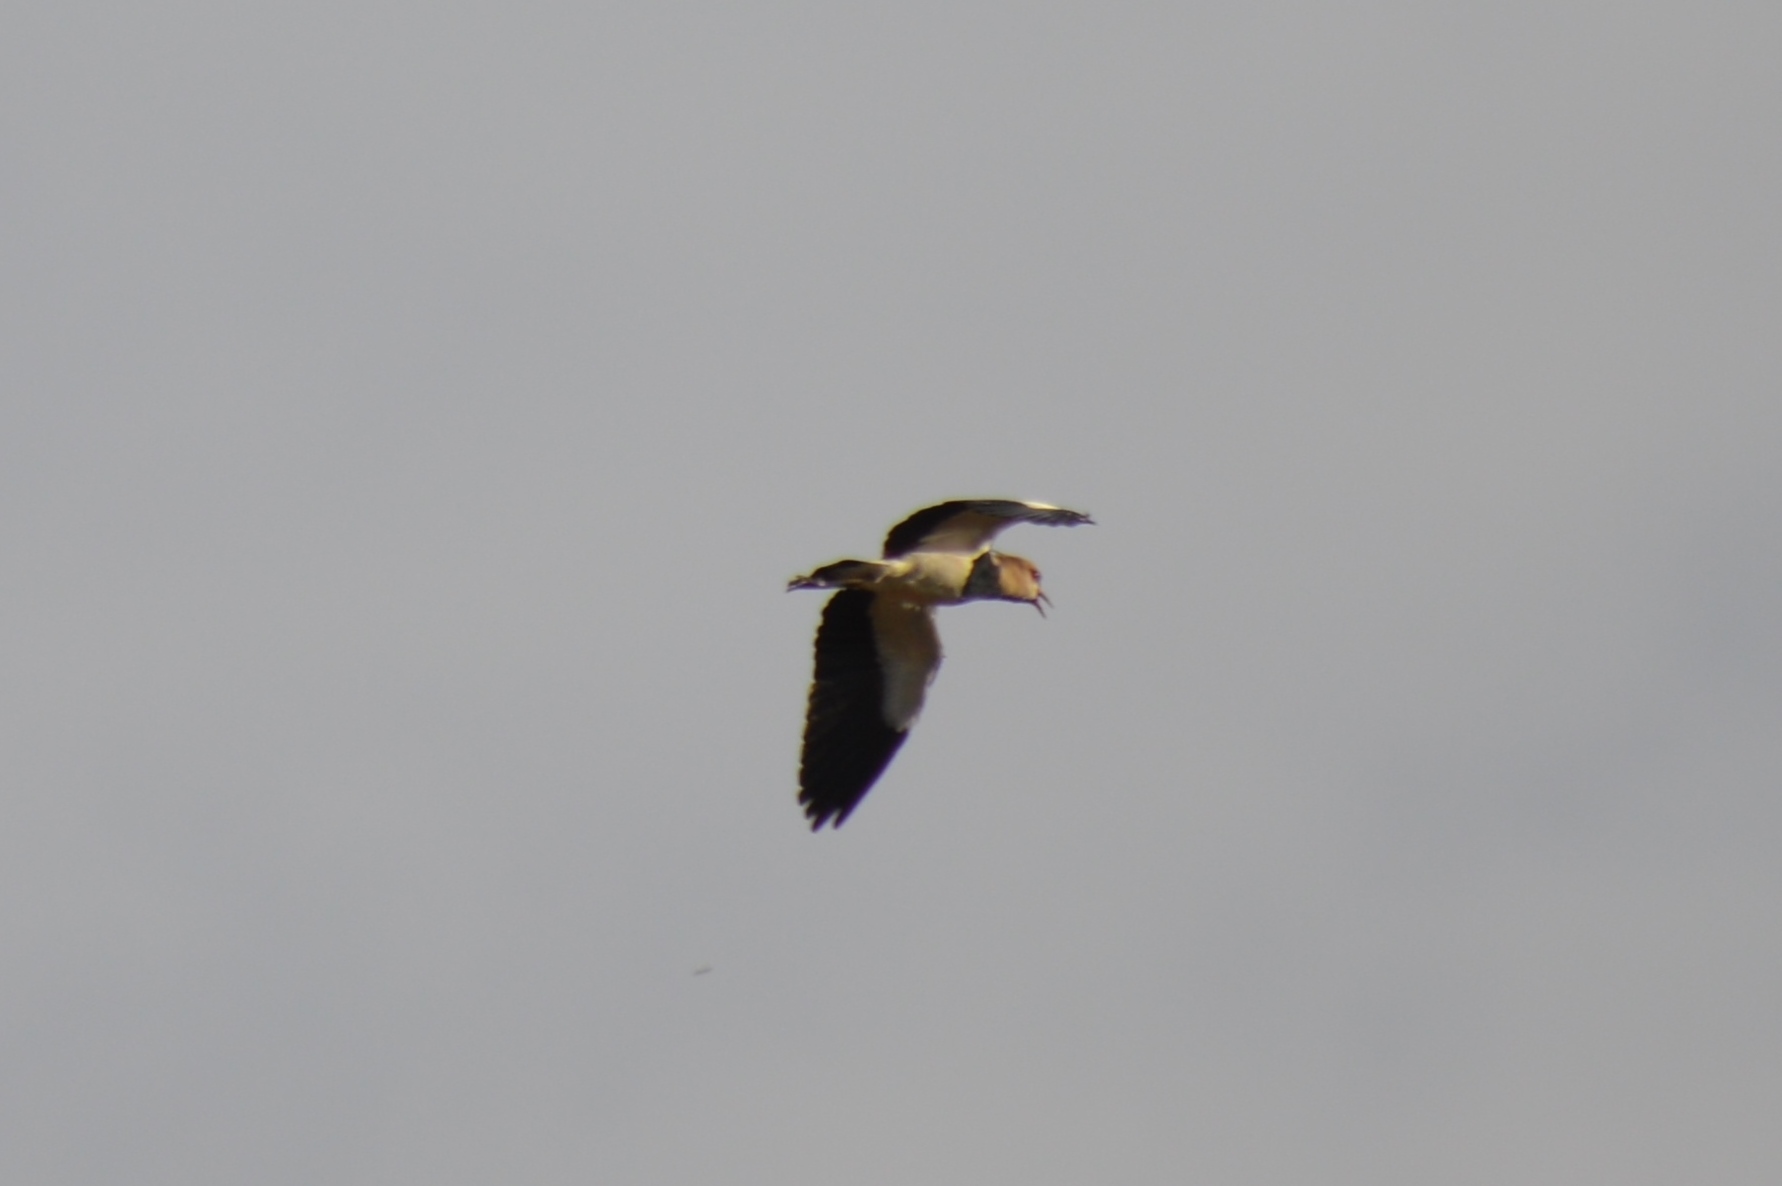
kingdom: Animalia
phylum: Chordata
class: Aves
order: Charadriiformes
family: Charadriidae
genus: Vanellus
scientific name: Vanellus chilensis
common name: Southern lapwing
